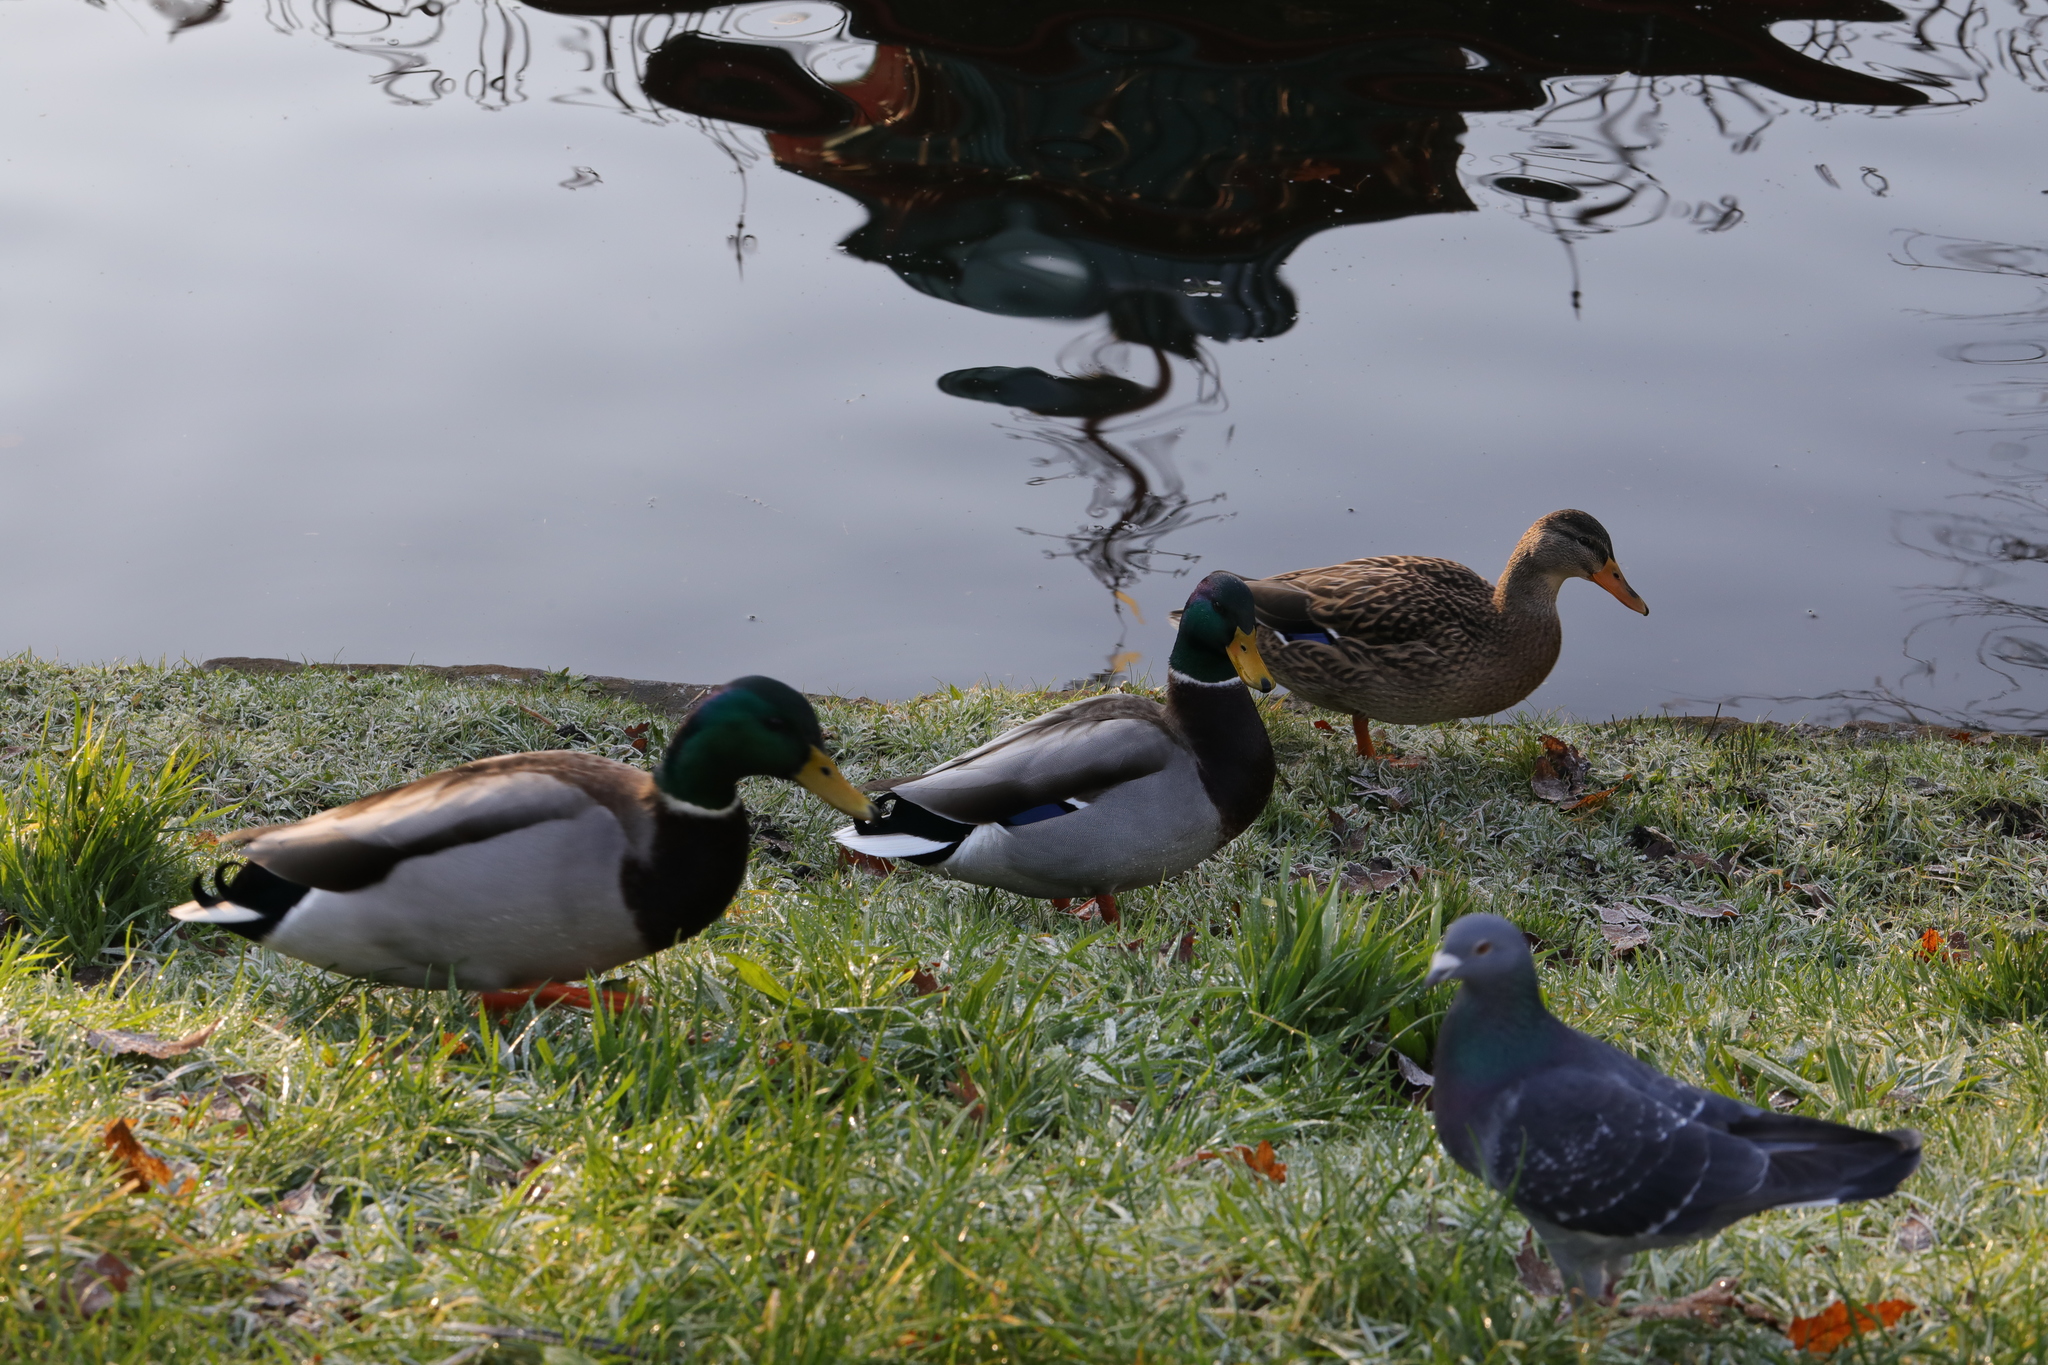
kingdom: Animalia
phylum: Chordata
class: Aves
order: Anseriformes
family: Anatidae
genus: Anas
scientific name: Anas platyrhynchos
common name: Mallard
